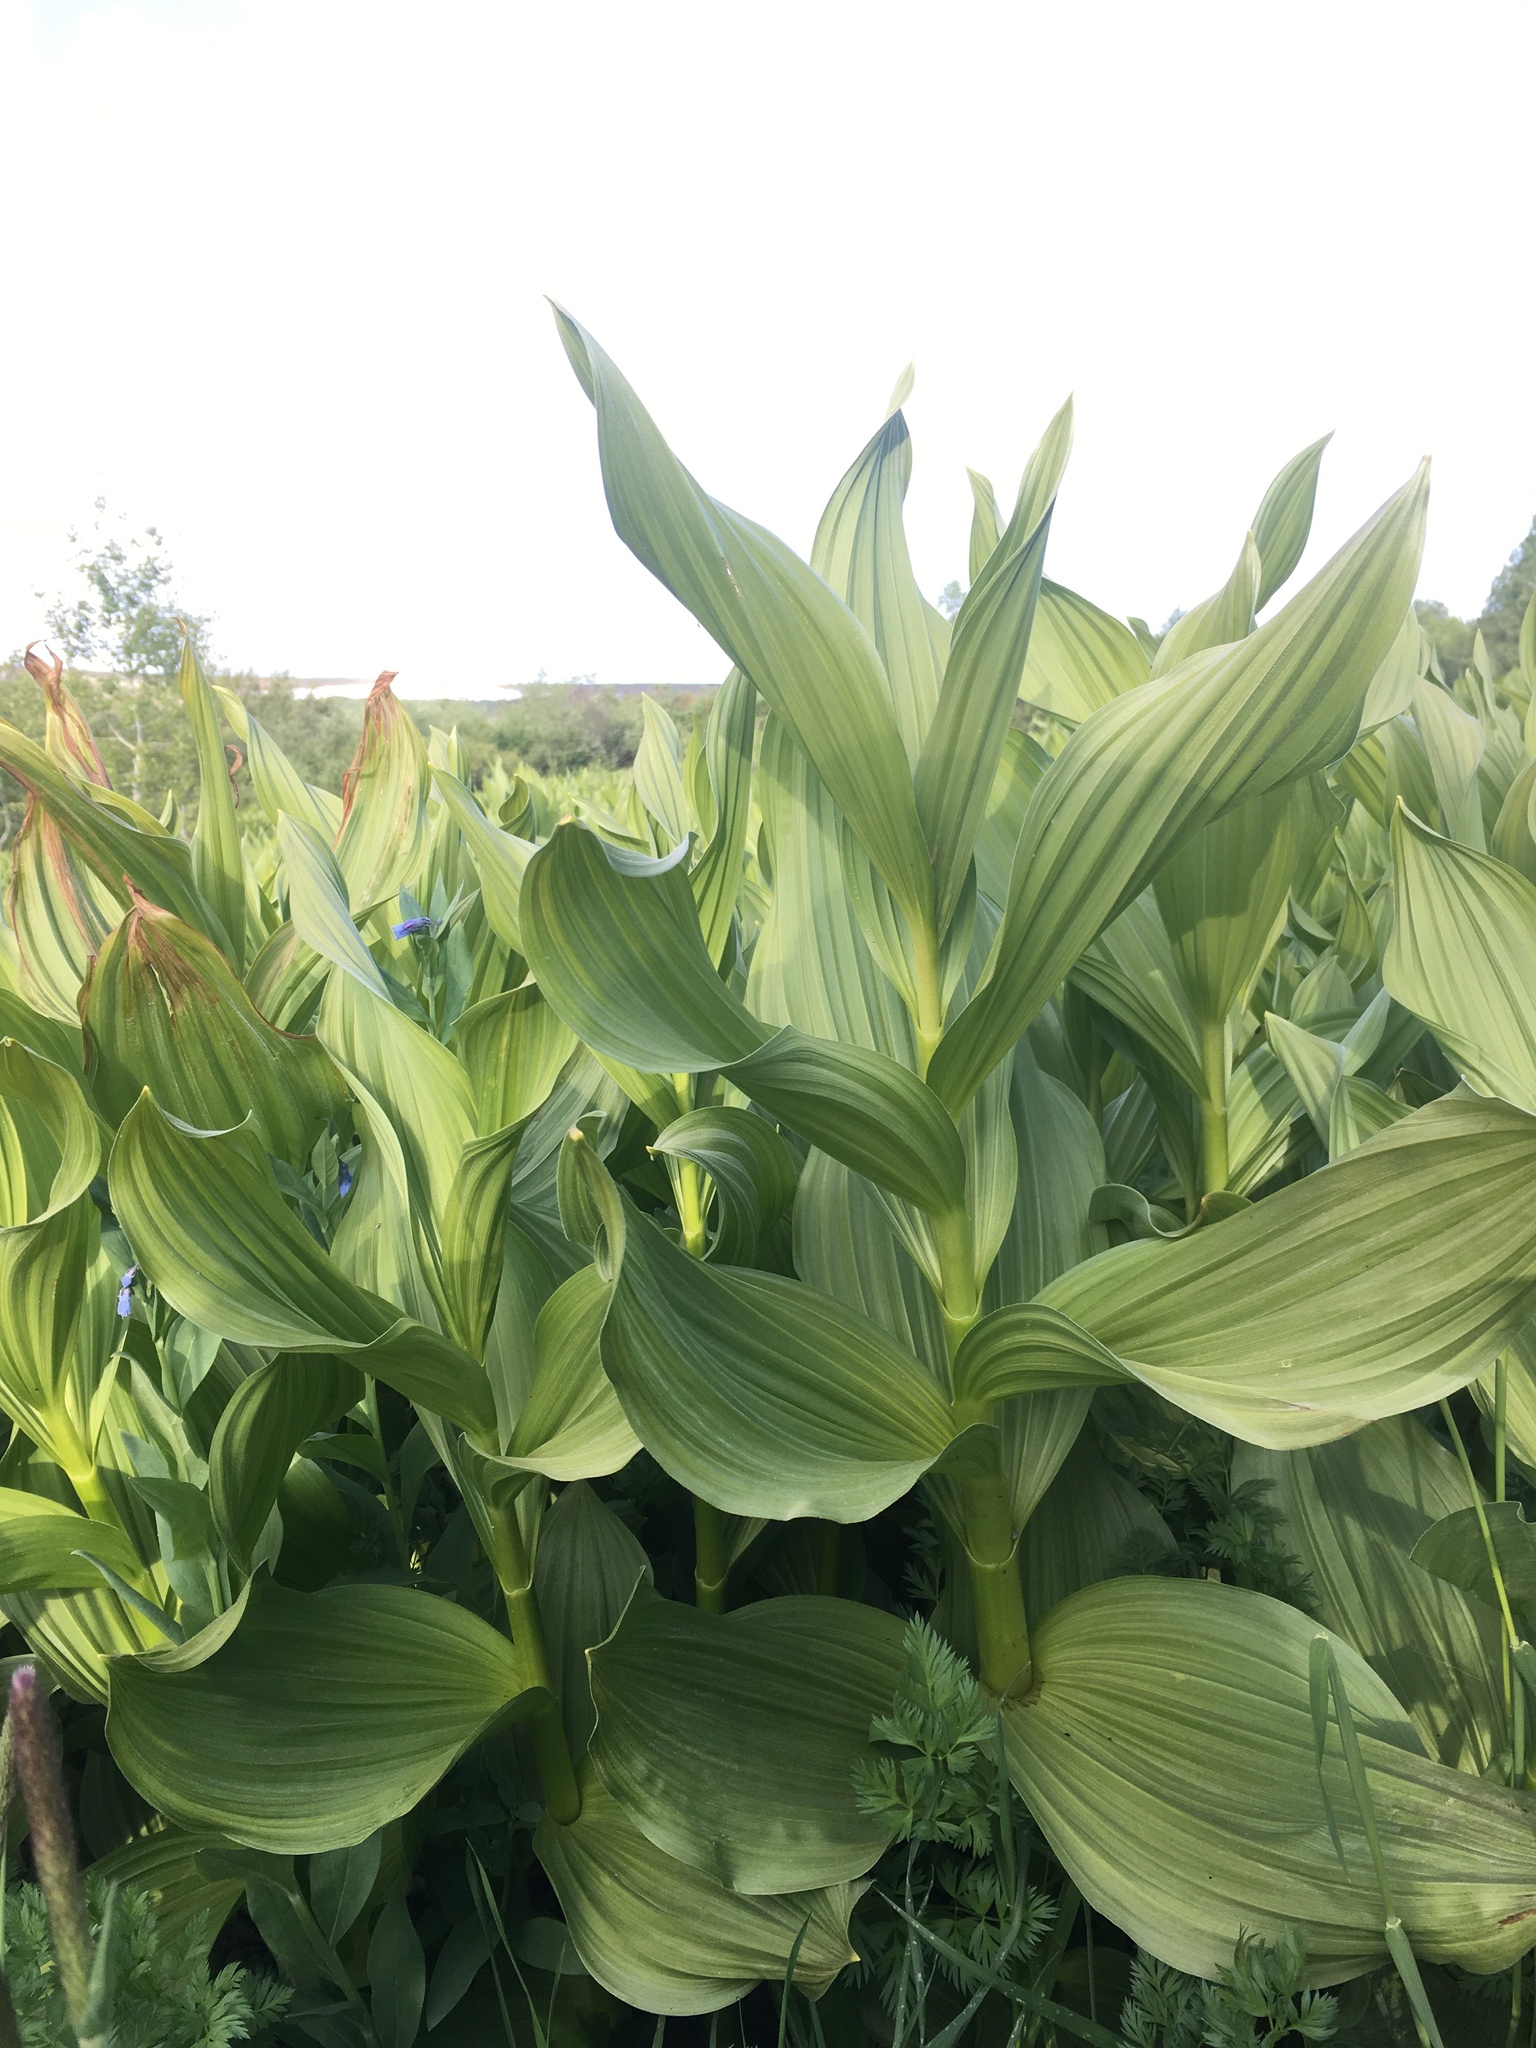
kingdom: Plantae
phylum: Tracheophyta
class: Liliopsida
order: Liliales
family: Melanthiaceae
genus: Veratrum
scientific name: Veratrum californicum
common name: California veratrum
